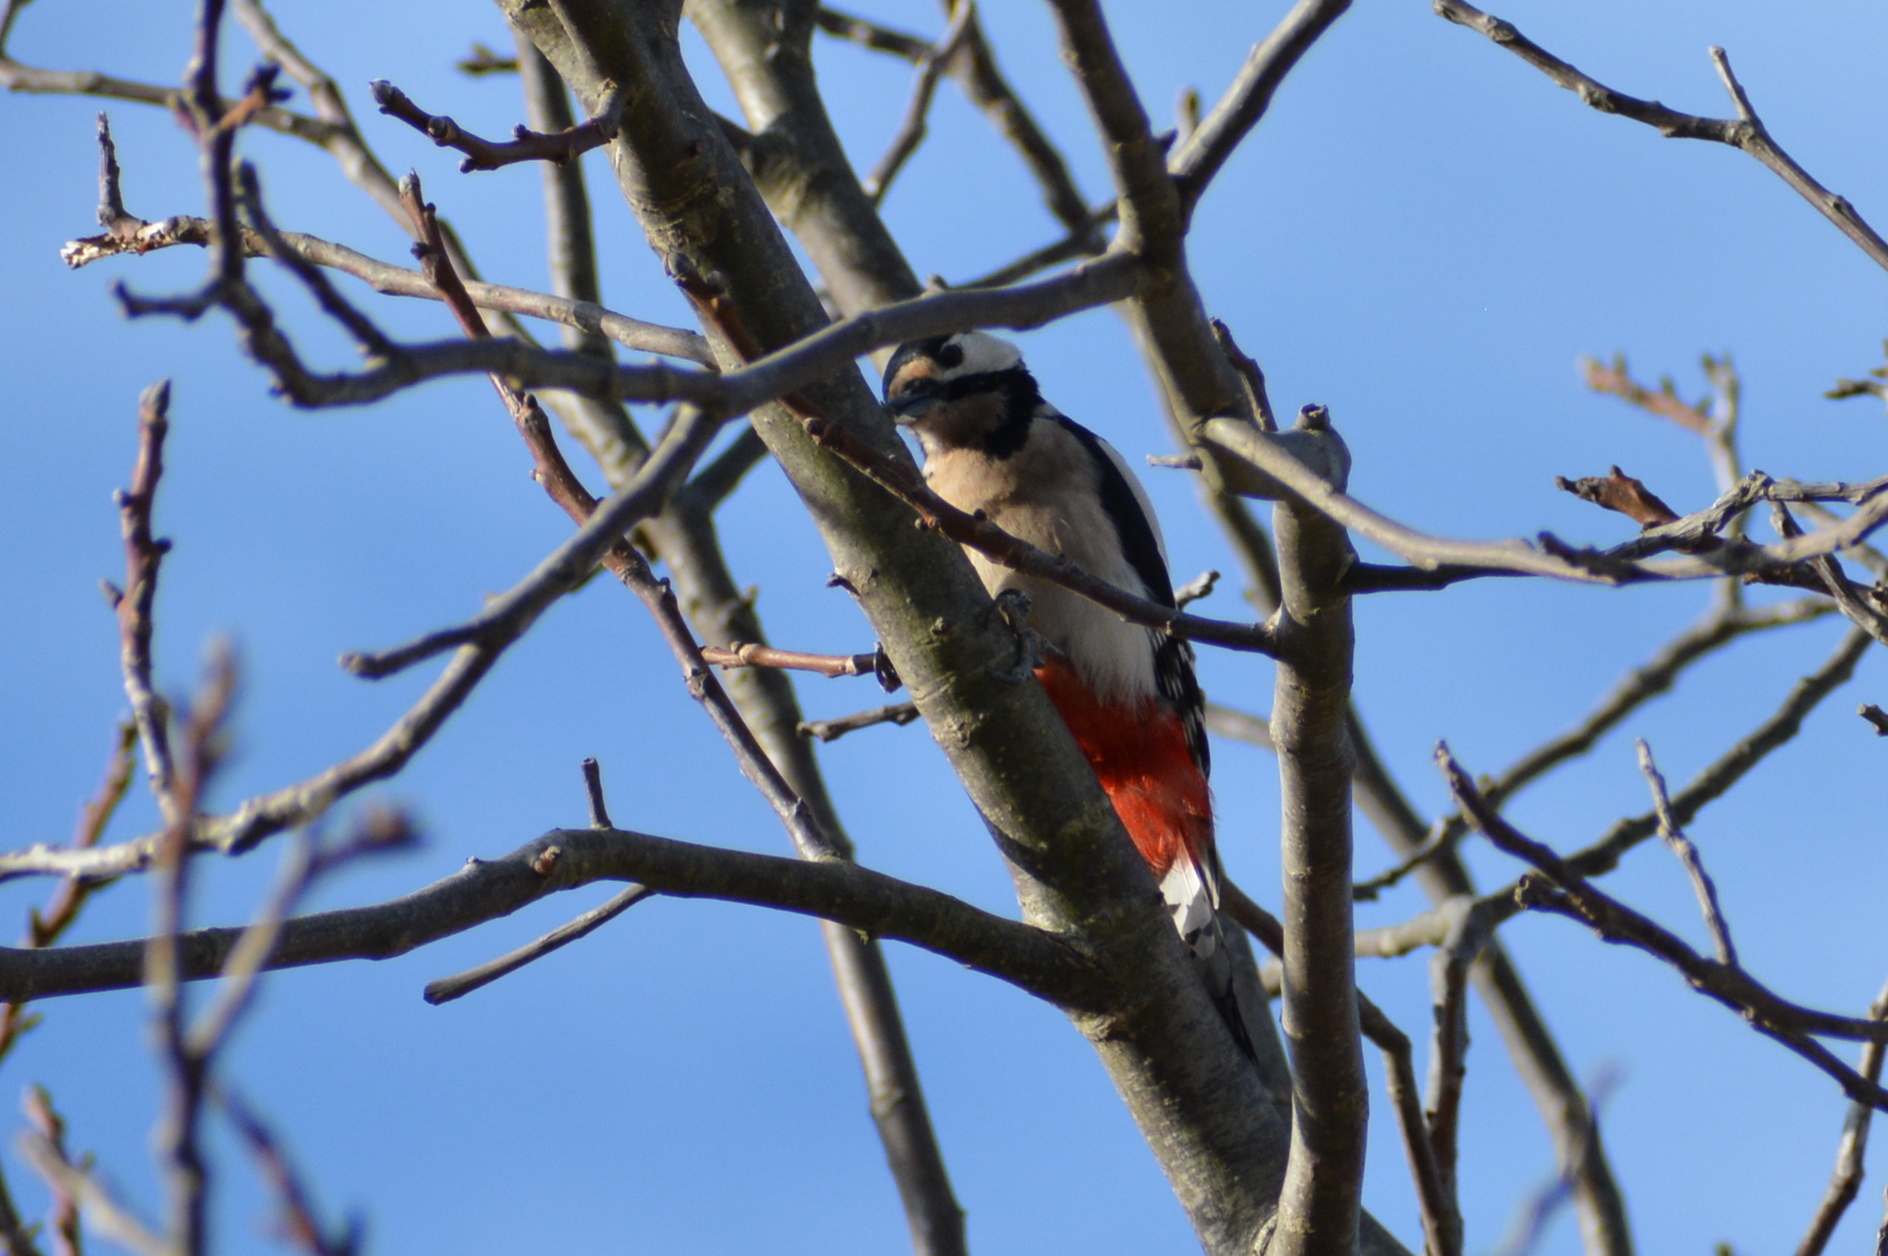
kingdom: Animalia
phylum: Chordata
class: Aves
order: Piciformes
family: Picidae
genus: Dendrocopos
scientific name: Dendrocopos major
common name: Great spotted woodpecker
